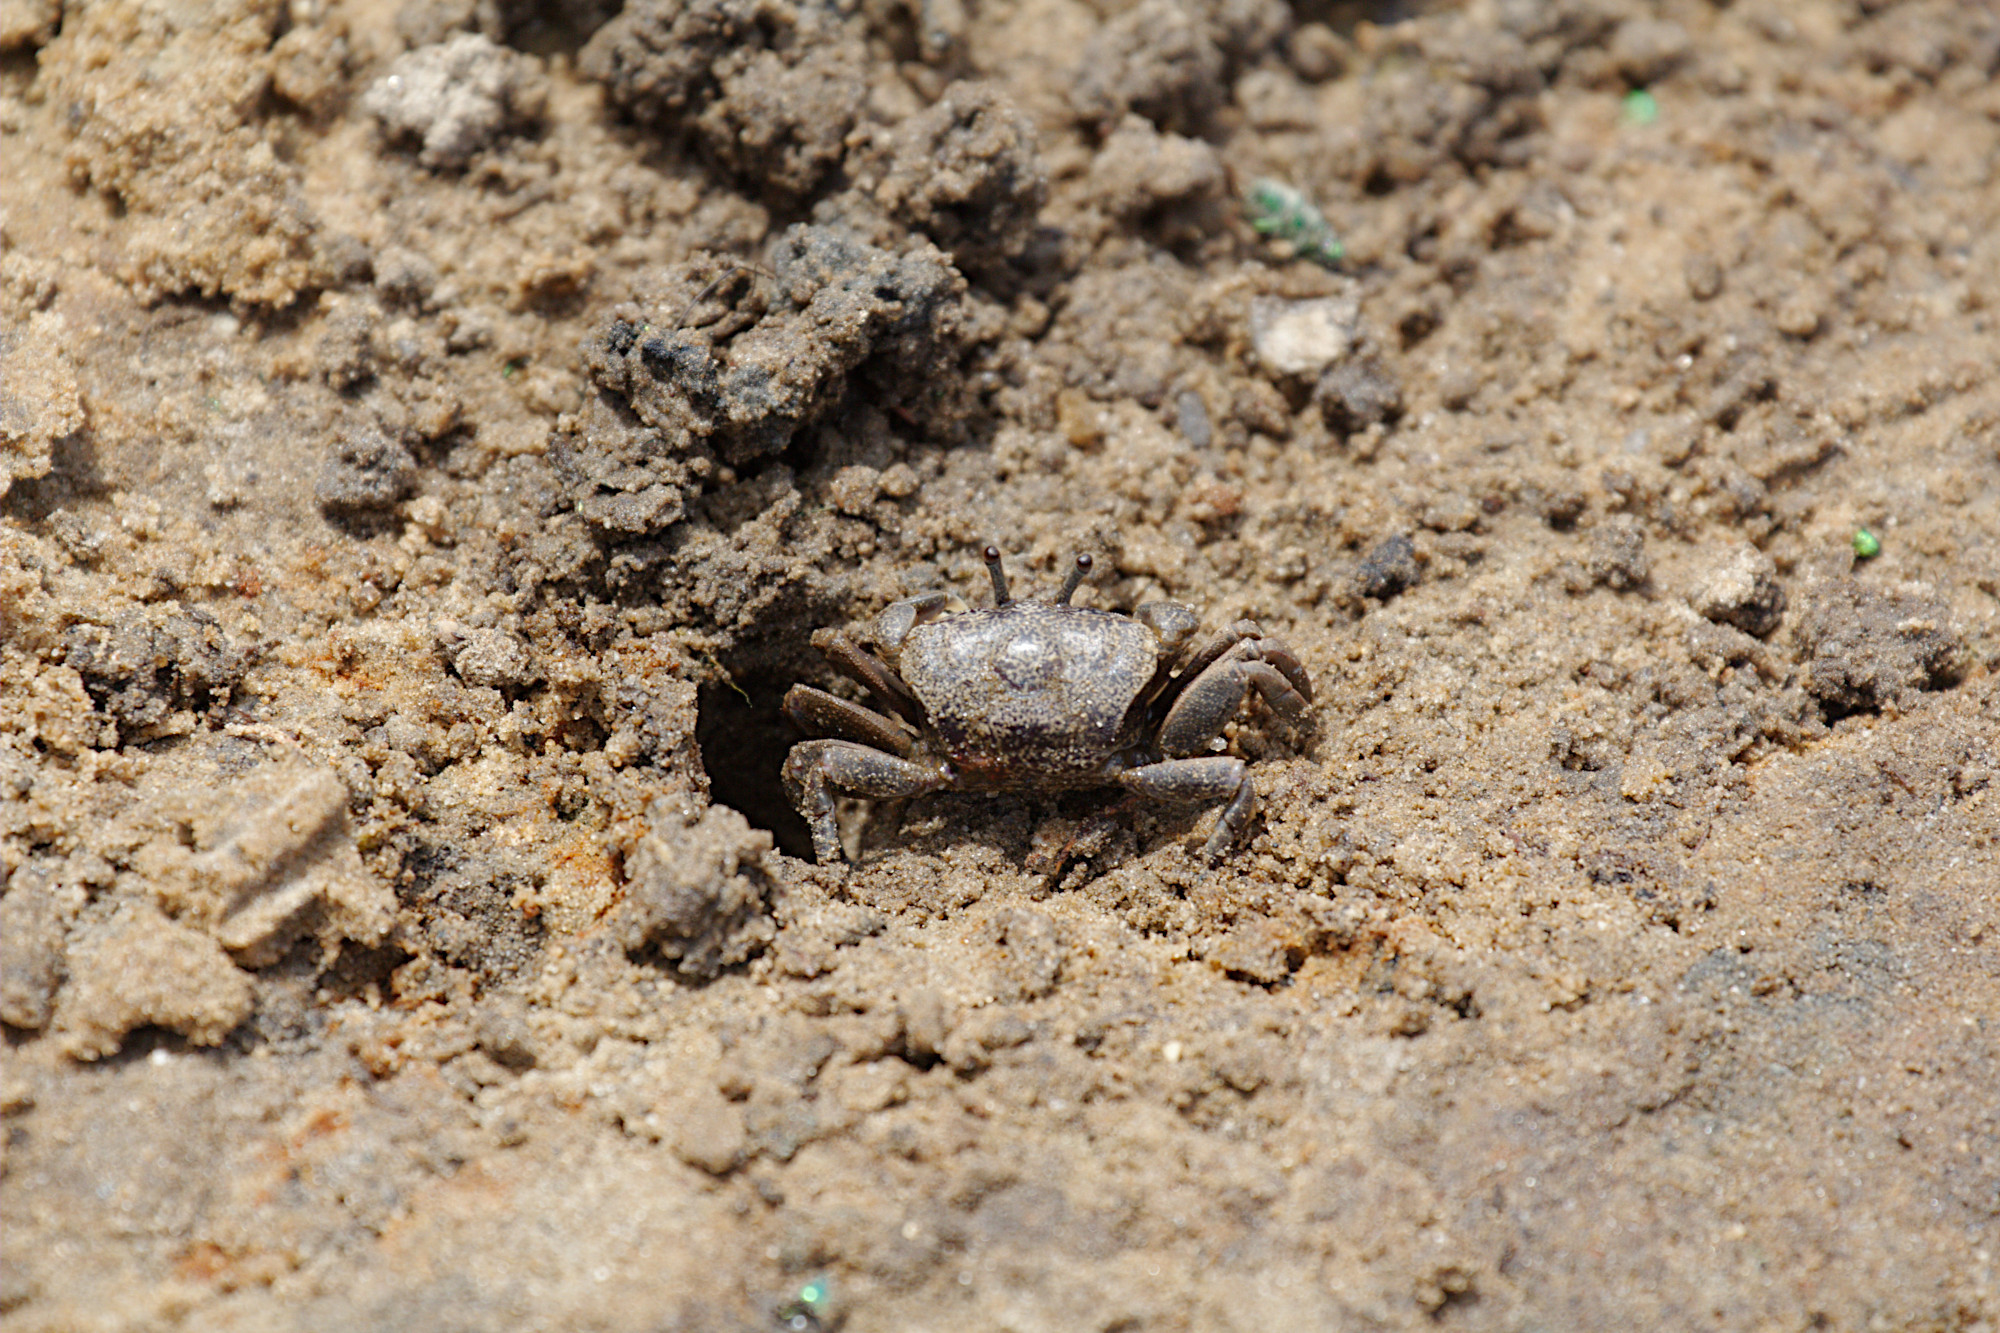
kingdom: Animalia
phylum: Arthropoda
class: Malacostraca
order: Decapoda
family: Heloeciidae
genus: Heloecius
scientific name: Heloecius cordiformis
